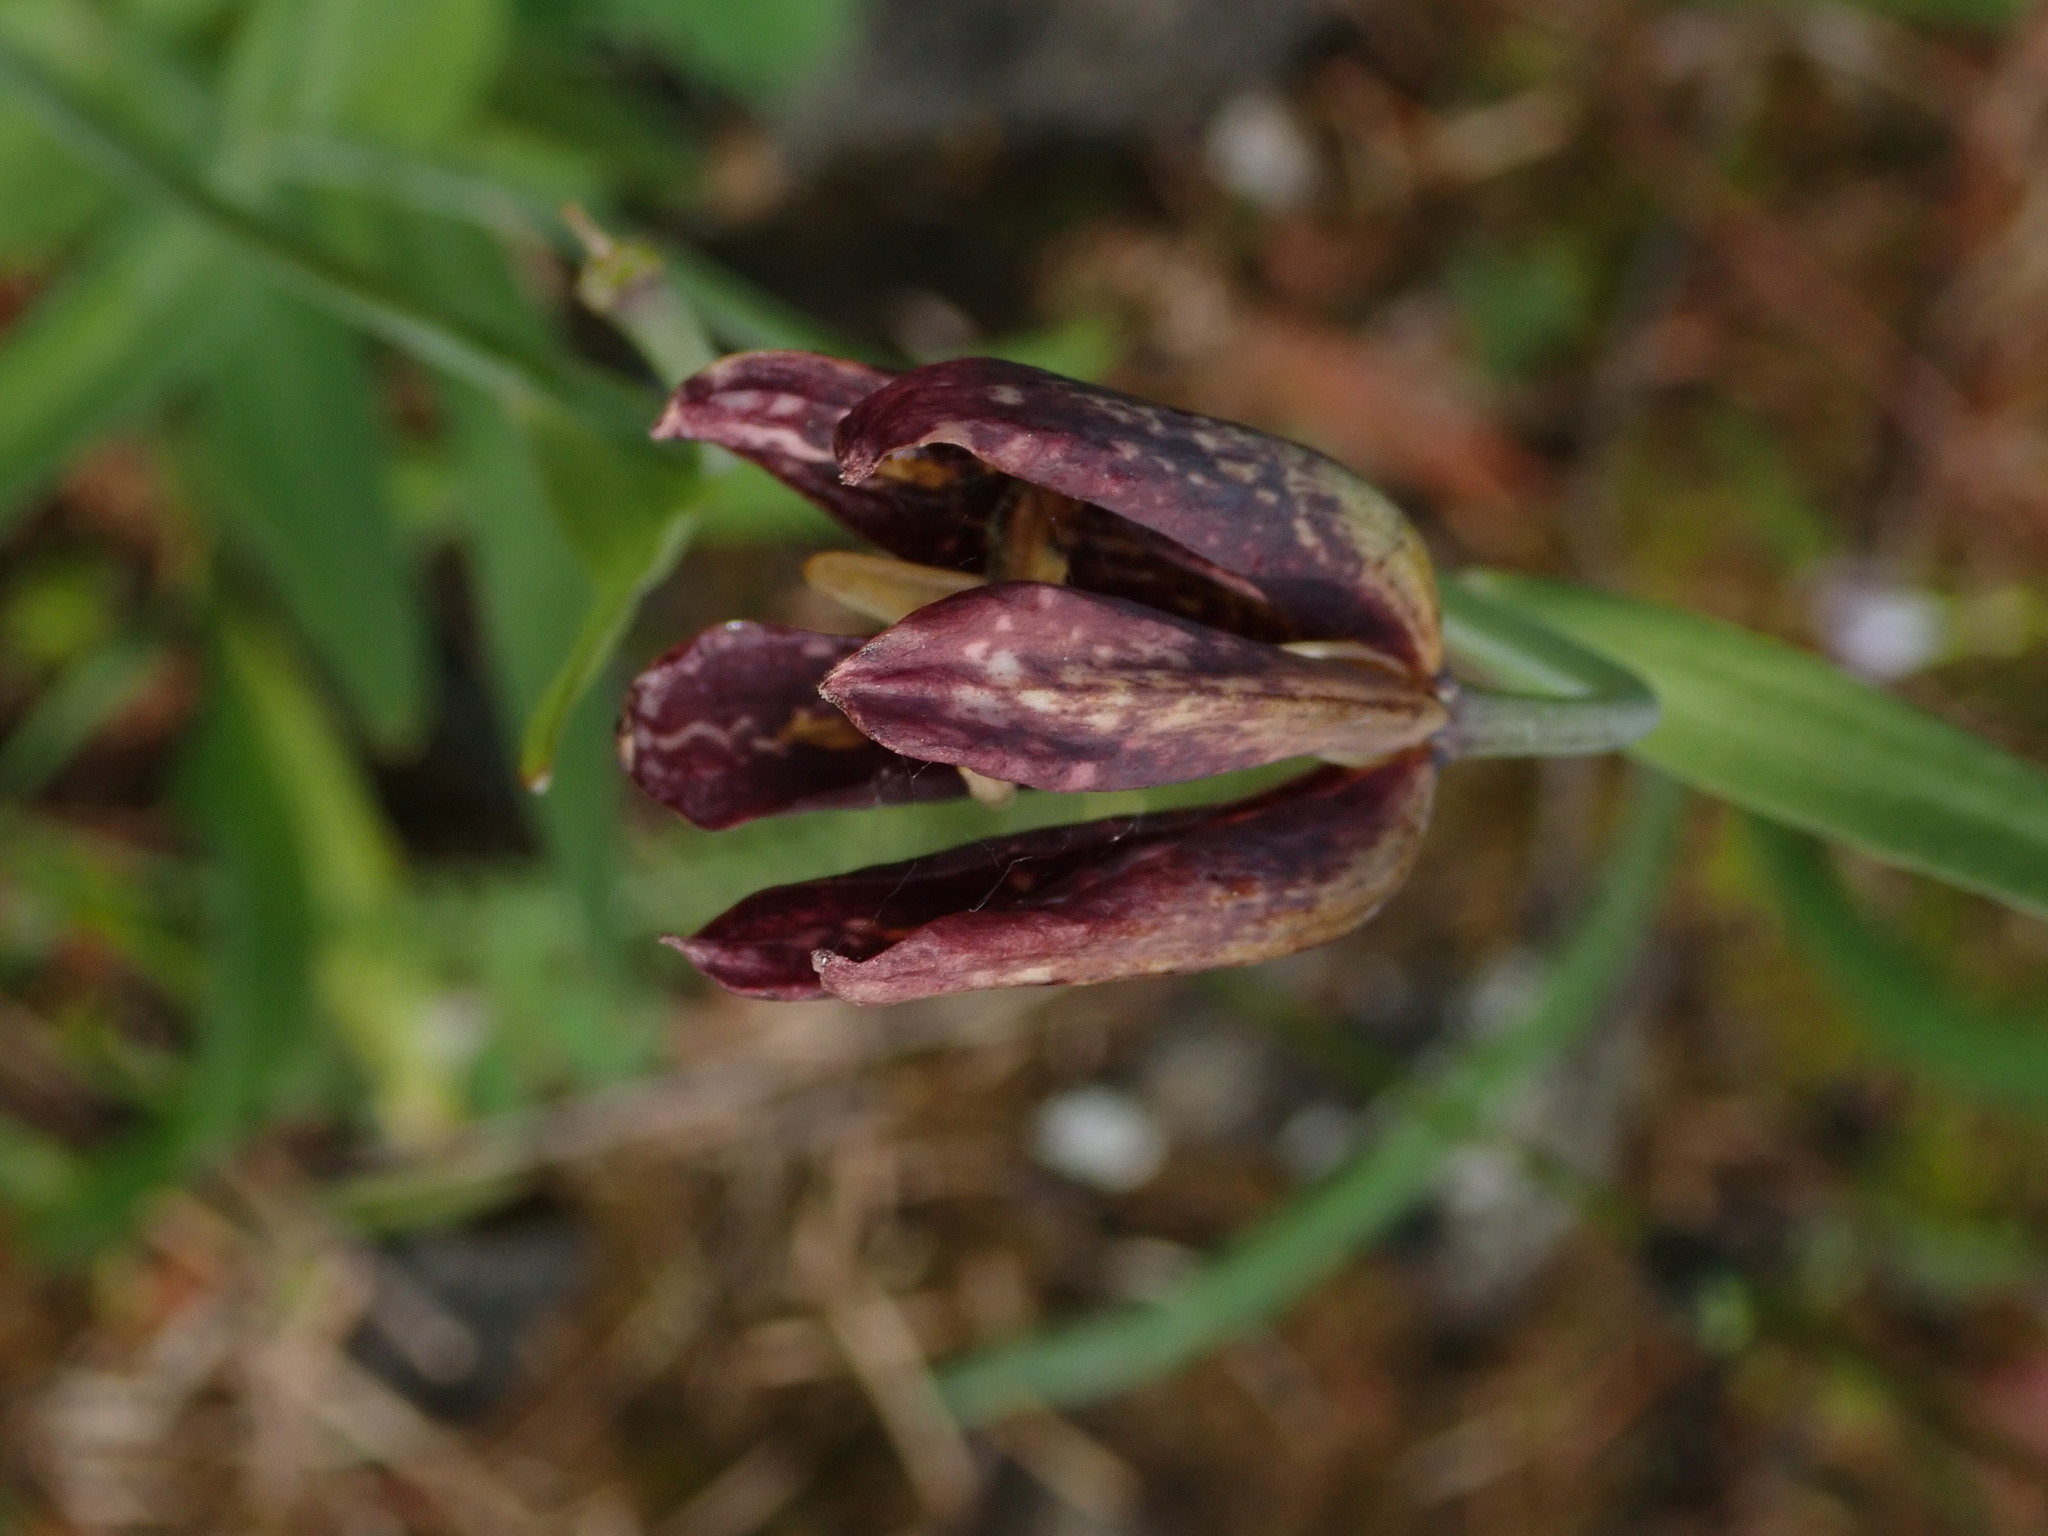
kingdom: Plantae
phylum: Tracheophyta
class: Liliopsida
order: Liliales
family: Liliaceae
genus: Fritillaria
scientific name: Fritillaria affinis
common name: Ojai fritillary
